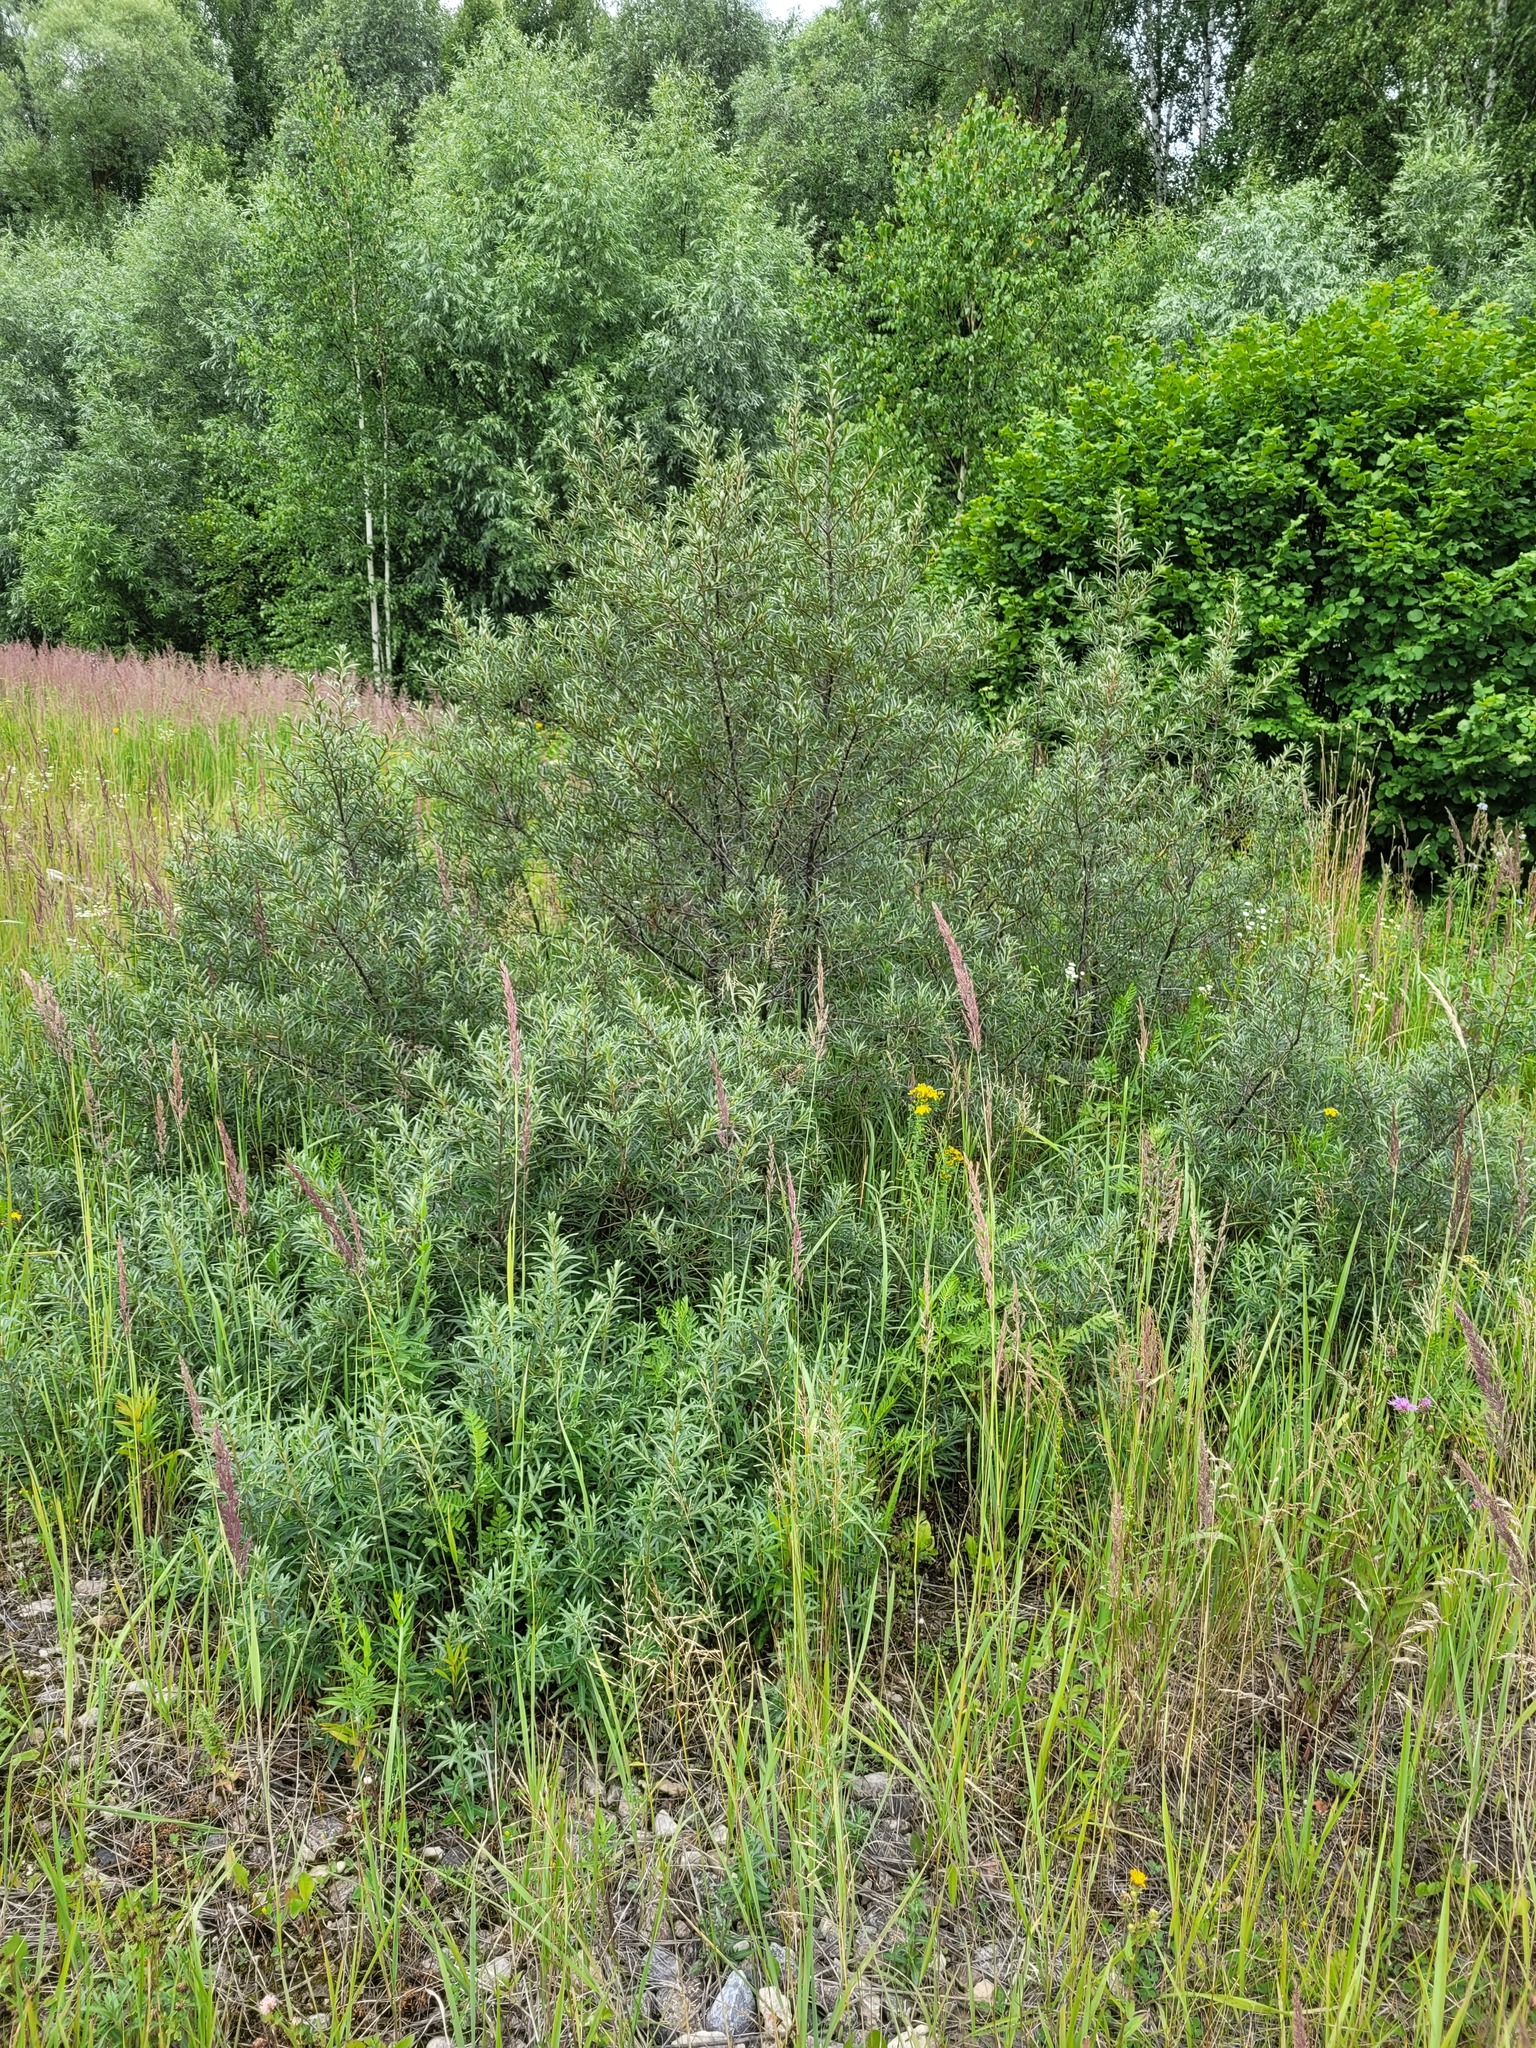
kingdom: Plantae
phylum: Tracheophyta
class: Magnoliopsida
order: Rosales
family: Elaeagnaceae
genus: Hippophae
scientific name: Hippophae rhamnoides
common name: Sea-buckthorn
